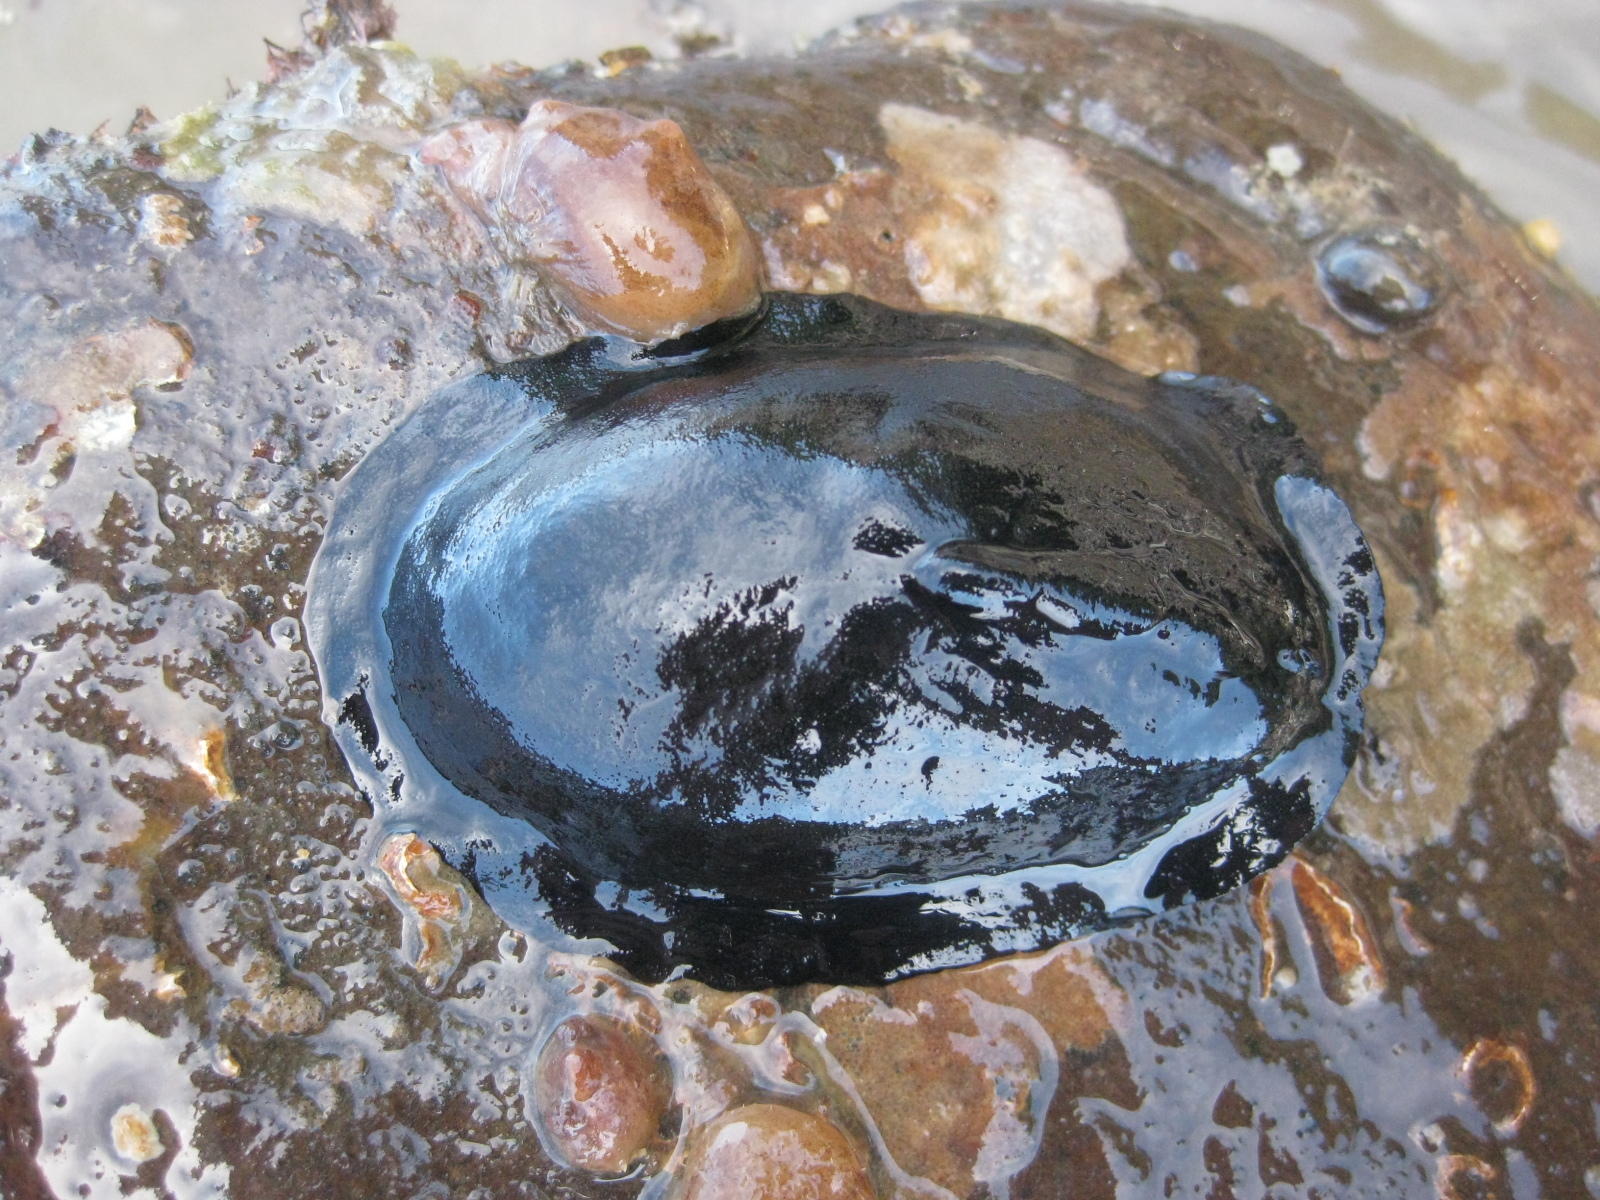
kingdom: Animalia
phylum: Mollusca
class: Gastropoda
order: Lepetellida
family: Fissurellidae
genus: Scutus
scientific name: Scutus breviculus
